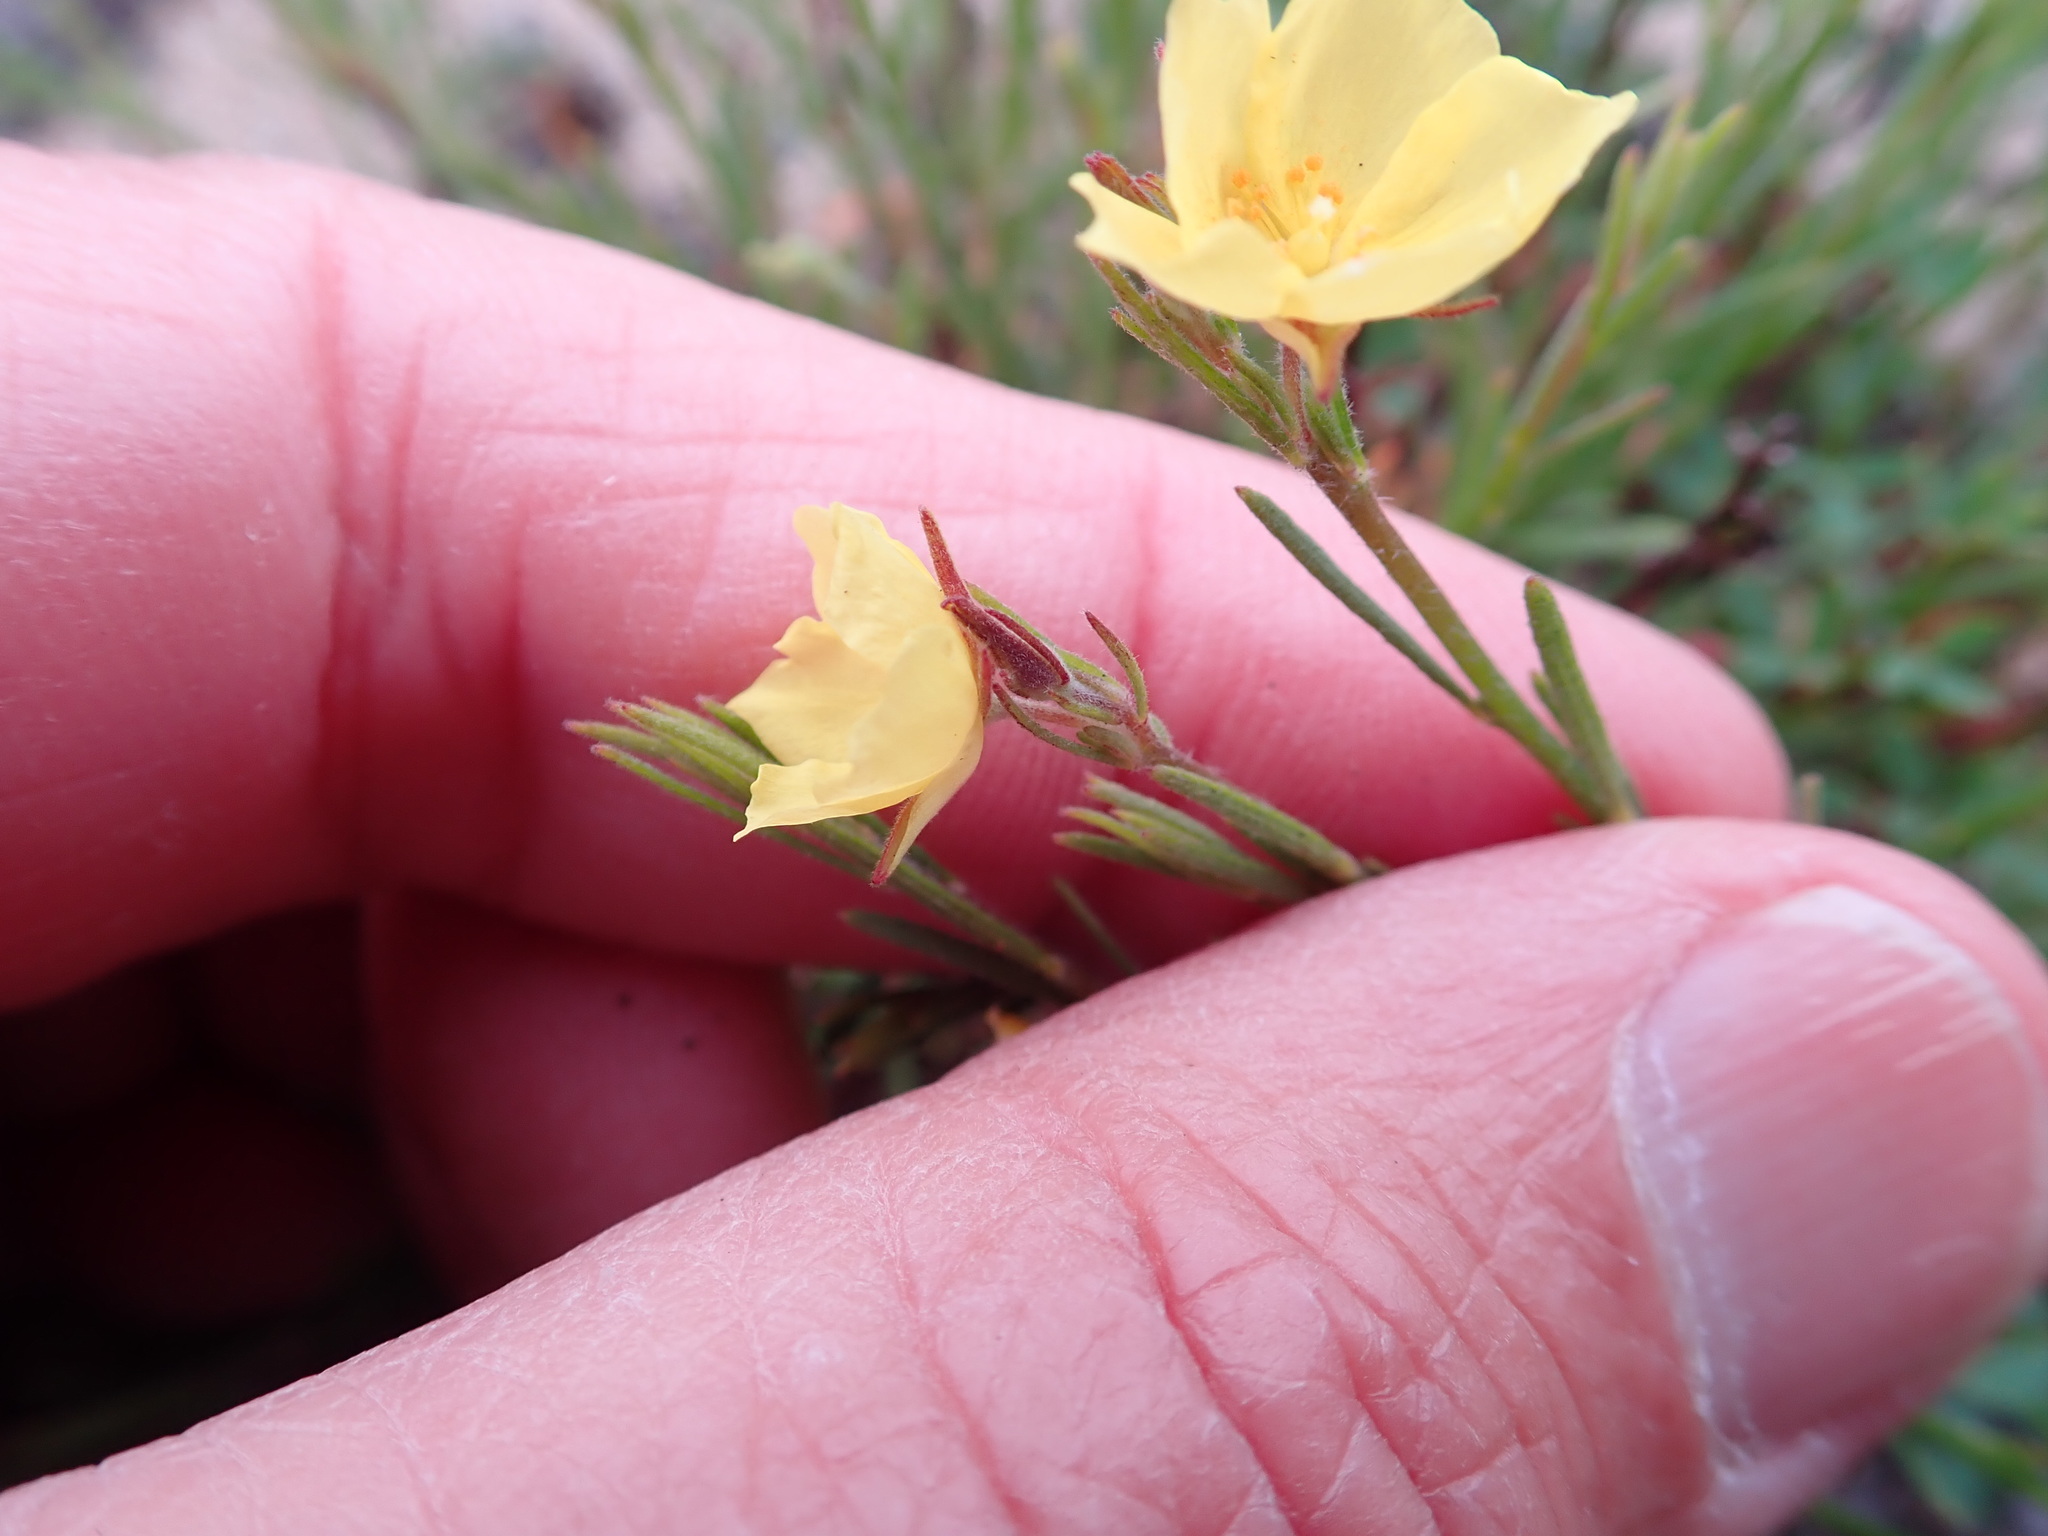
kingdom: Plantae
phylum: Tracheophyta
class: Magnoliopsida
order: Malvales
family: Cistaceae
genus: Crocanthemum
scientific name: Crocanthemum scoparium
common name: Broom-rose
